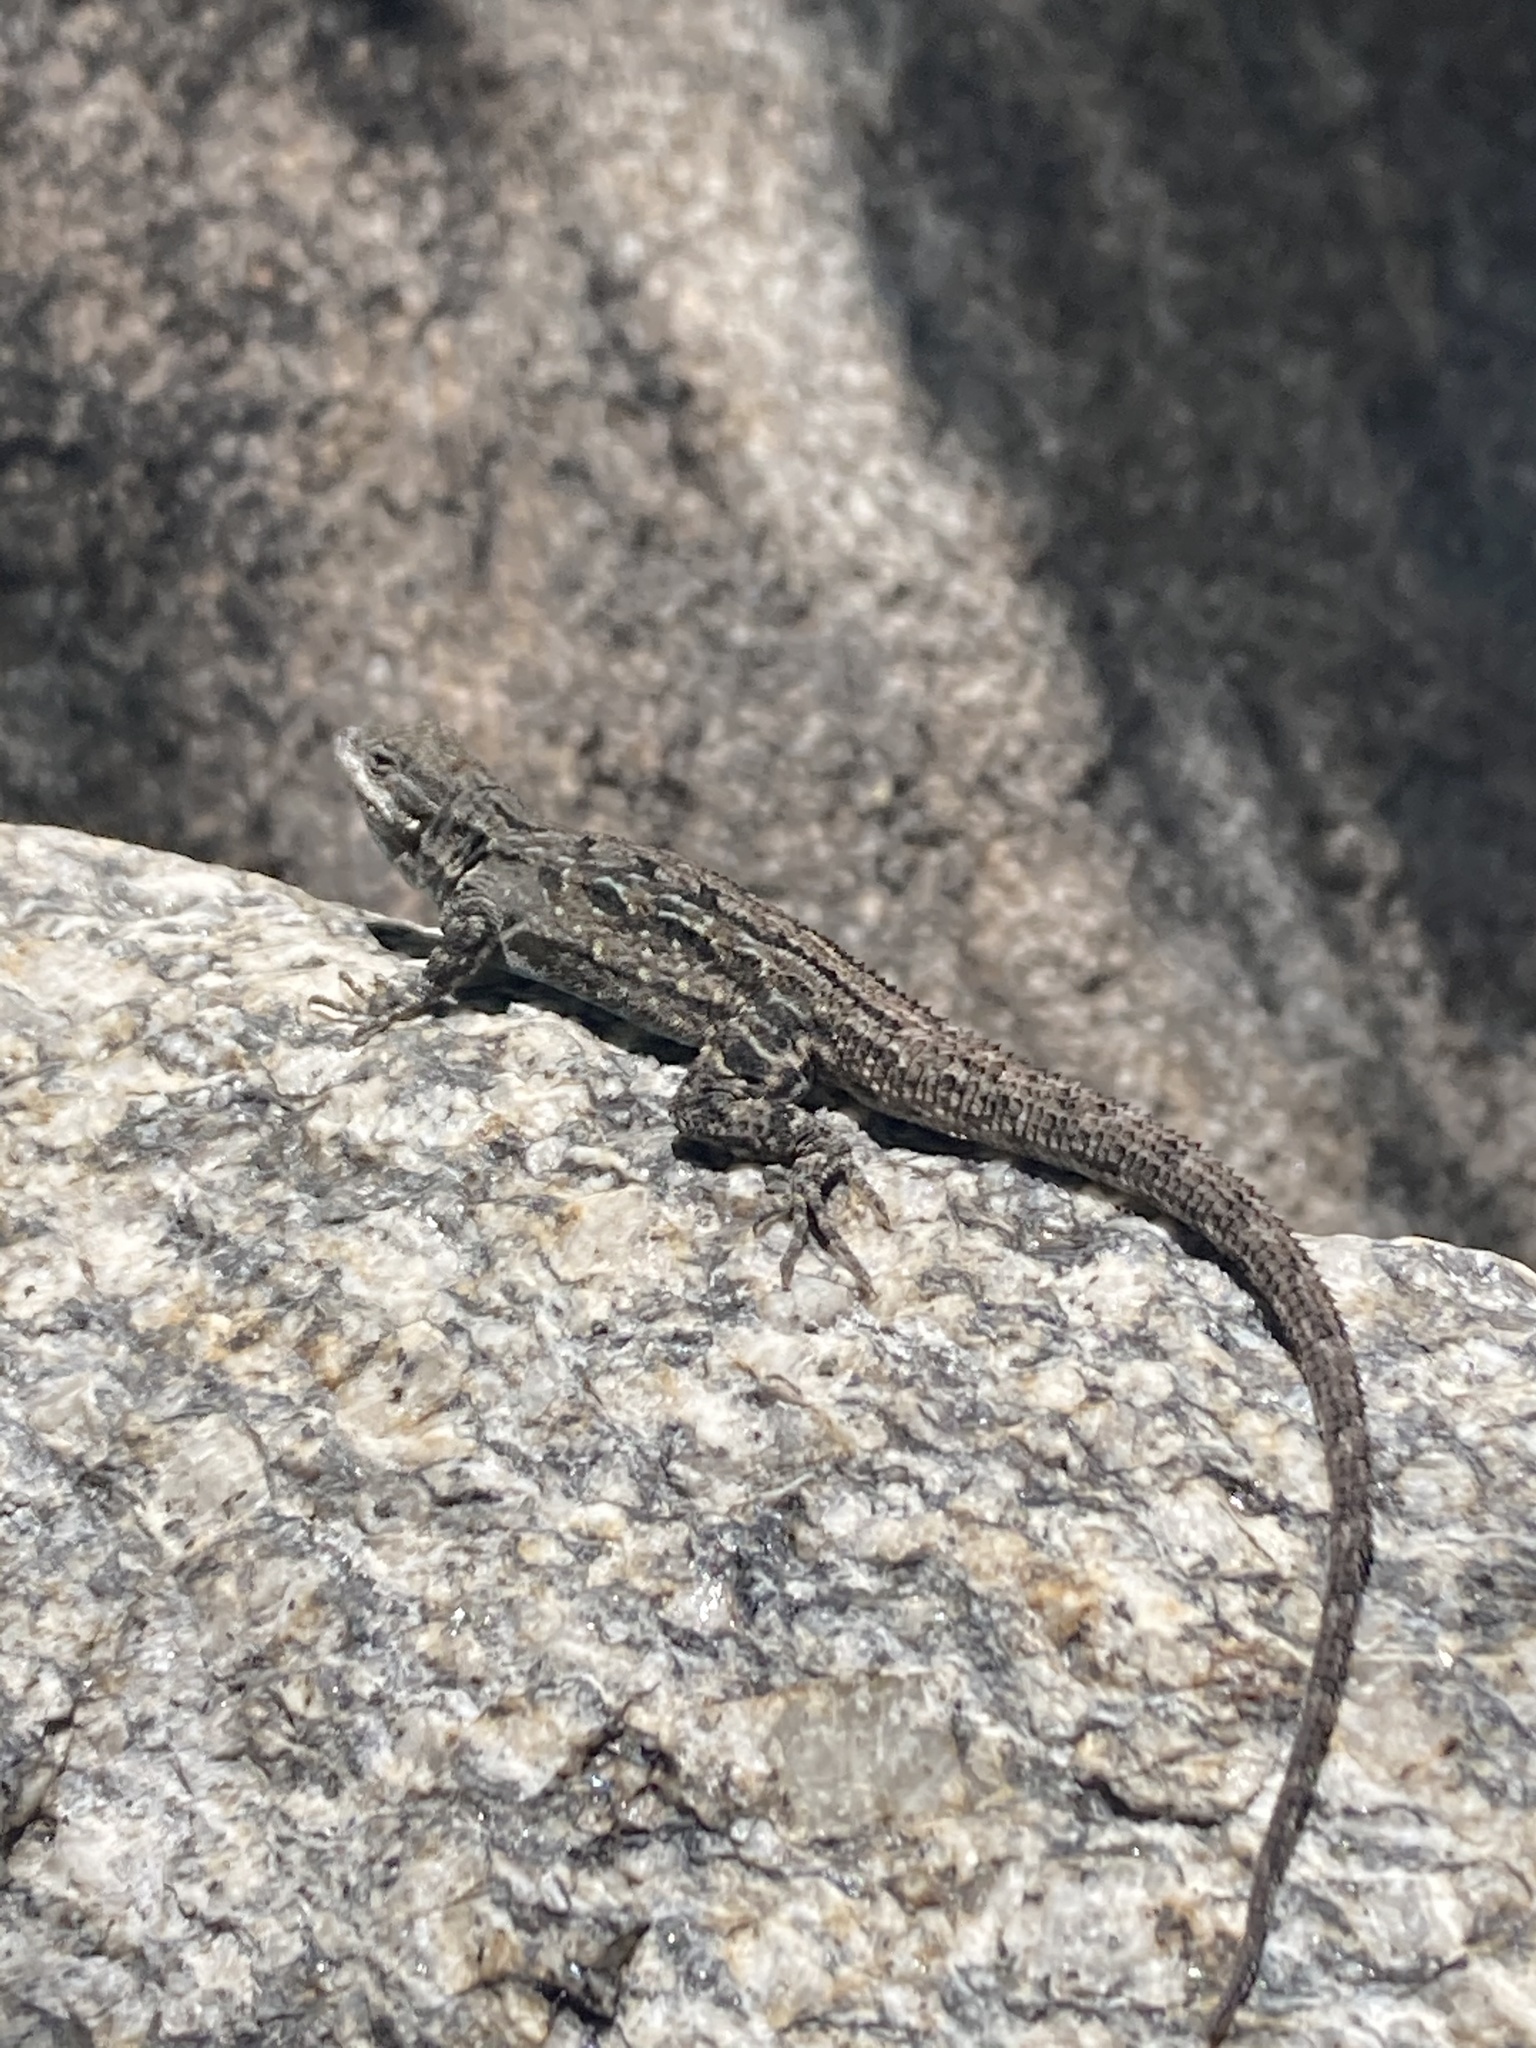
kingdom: Animalia
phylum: Chordata
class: Squamata
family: Phrynosomatidae
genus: Urosaurus
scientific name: Urosaurus ornatus
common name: Ornate tree lizard
